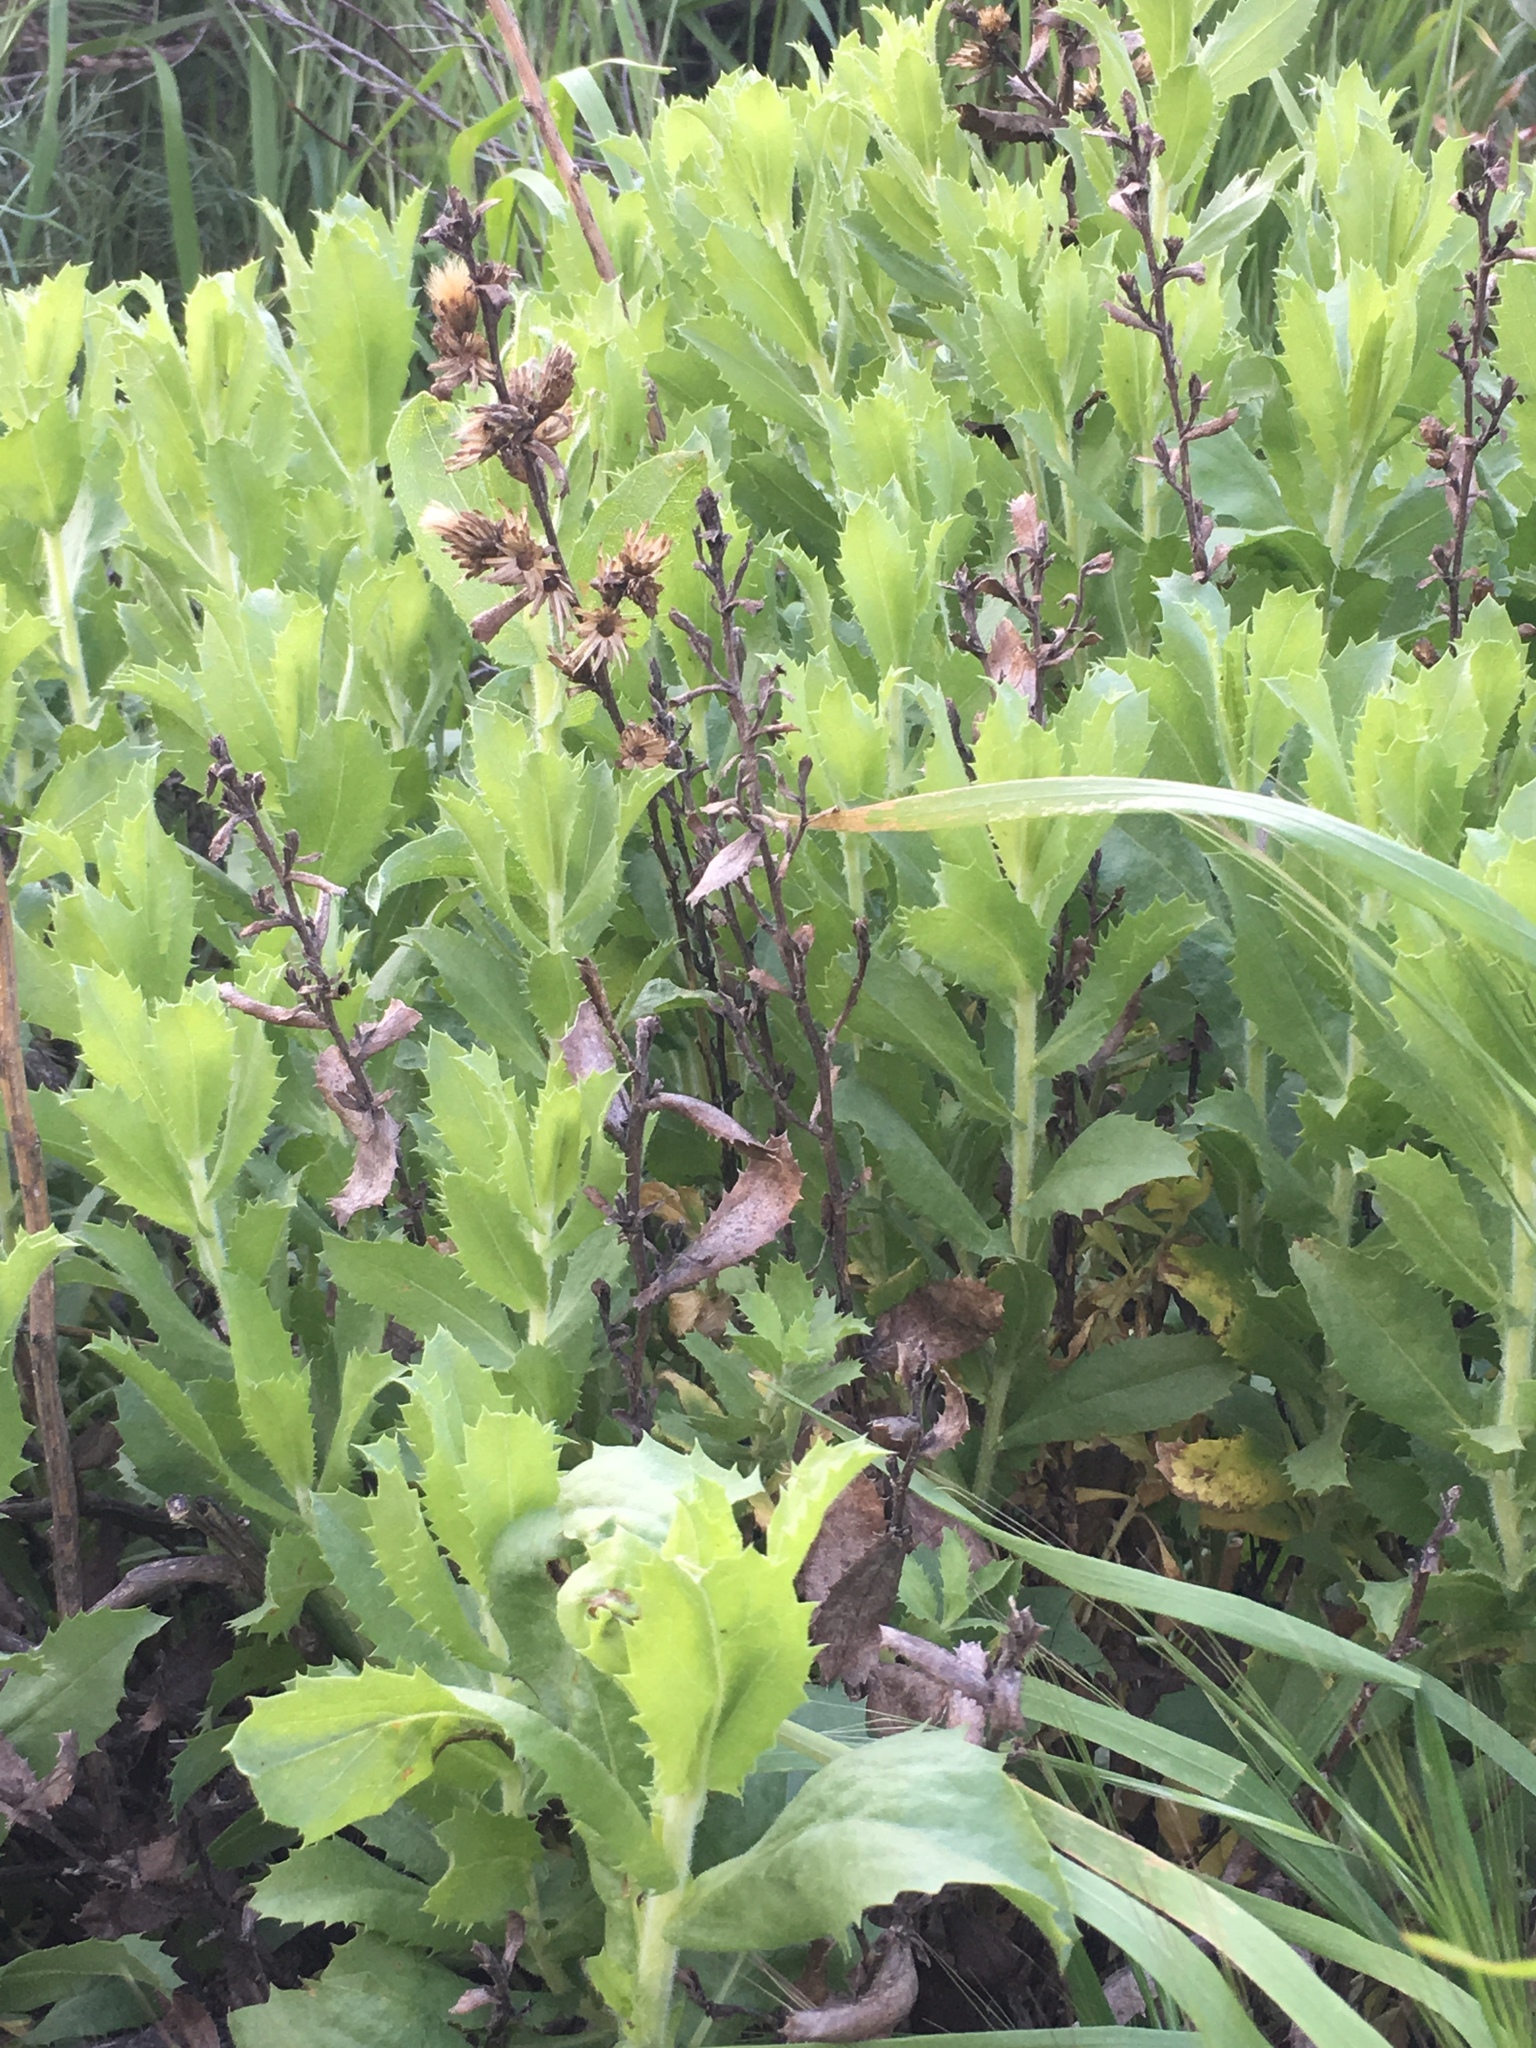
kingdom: Plantae
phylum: Tracheophyta
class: Magnoliopsida
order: Asterales
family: Asteraceae
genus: Hazardia
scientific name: Hazardia squarrosa
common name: Saw-tooth goldenbush
